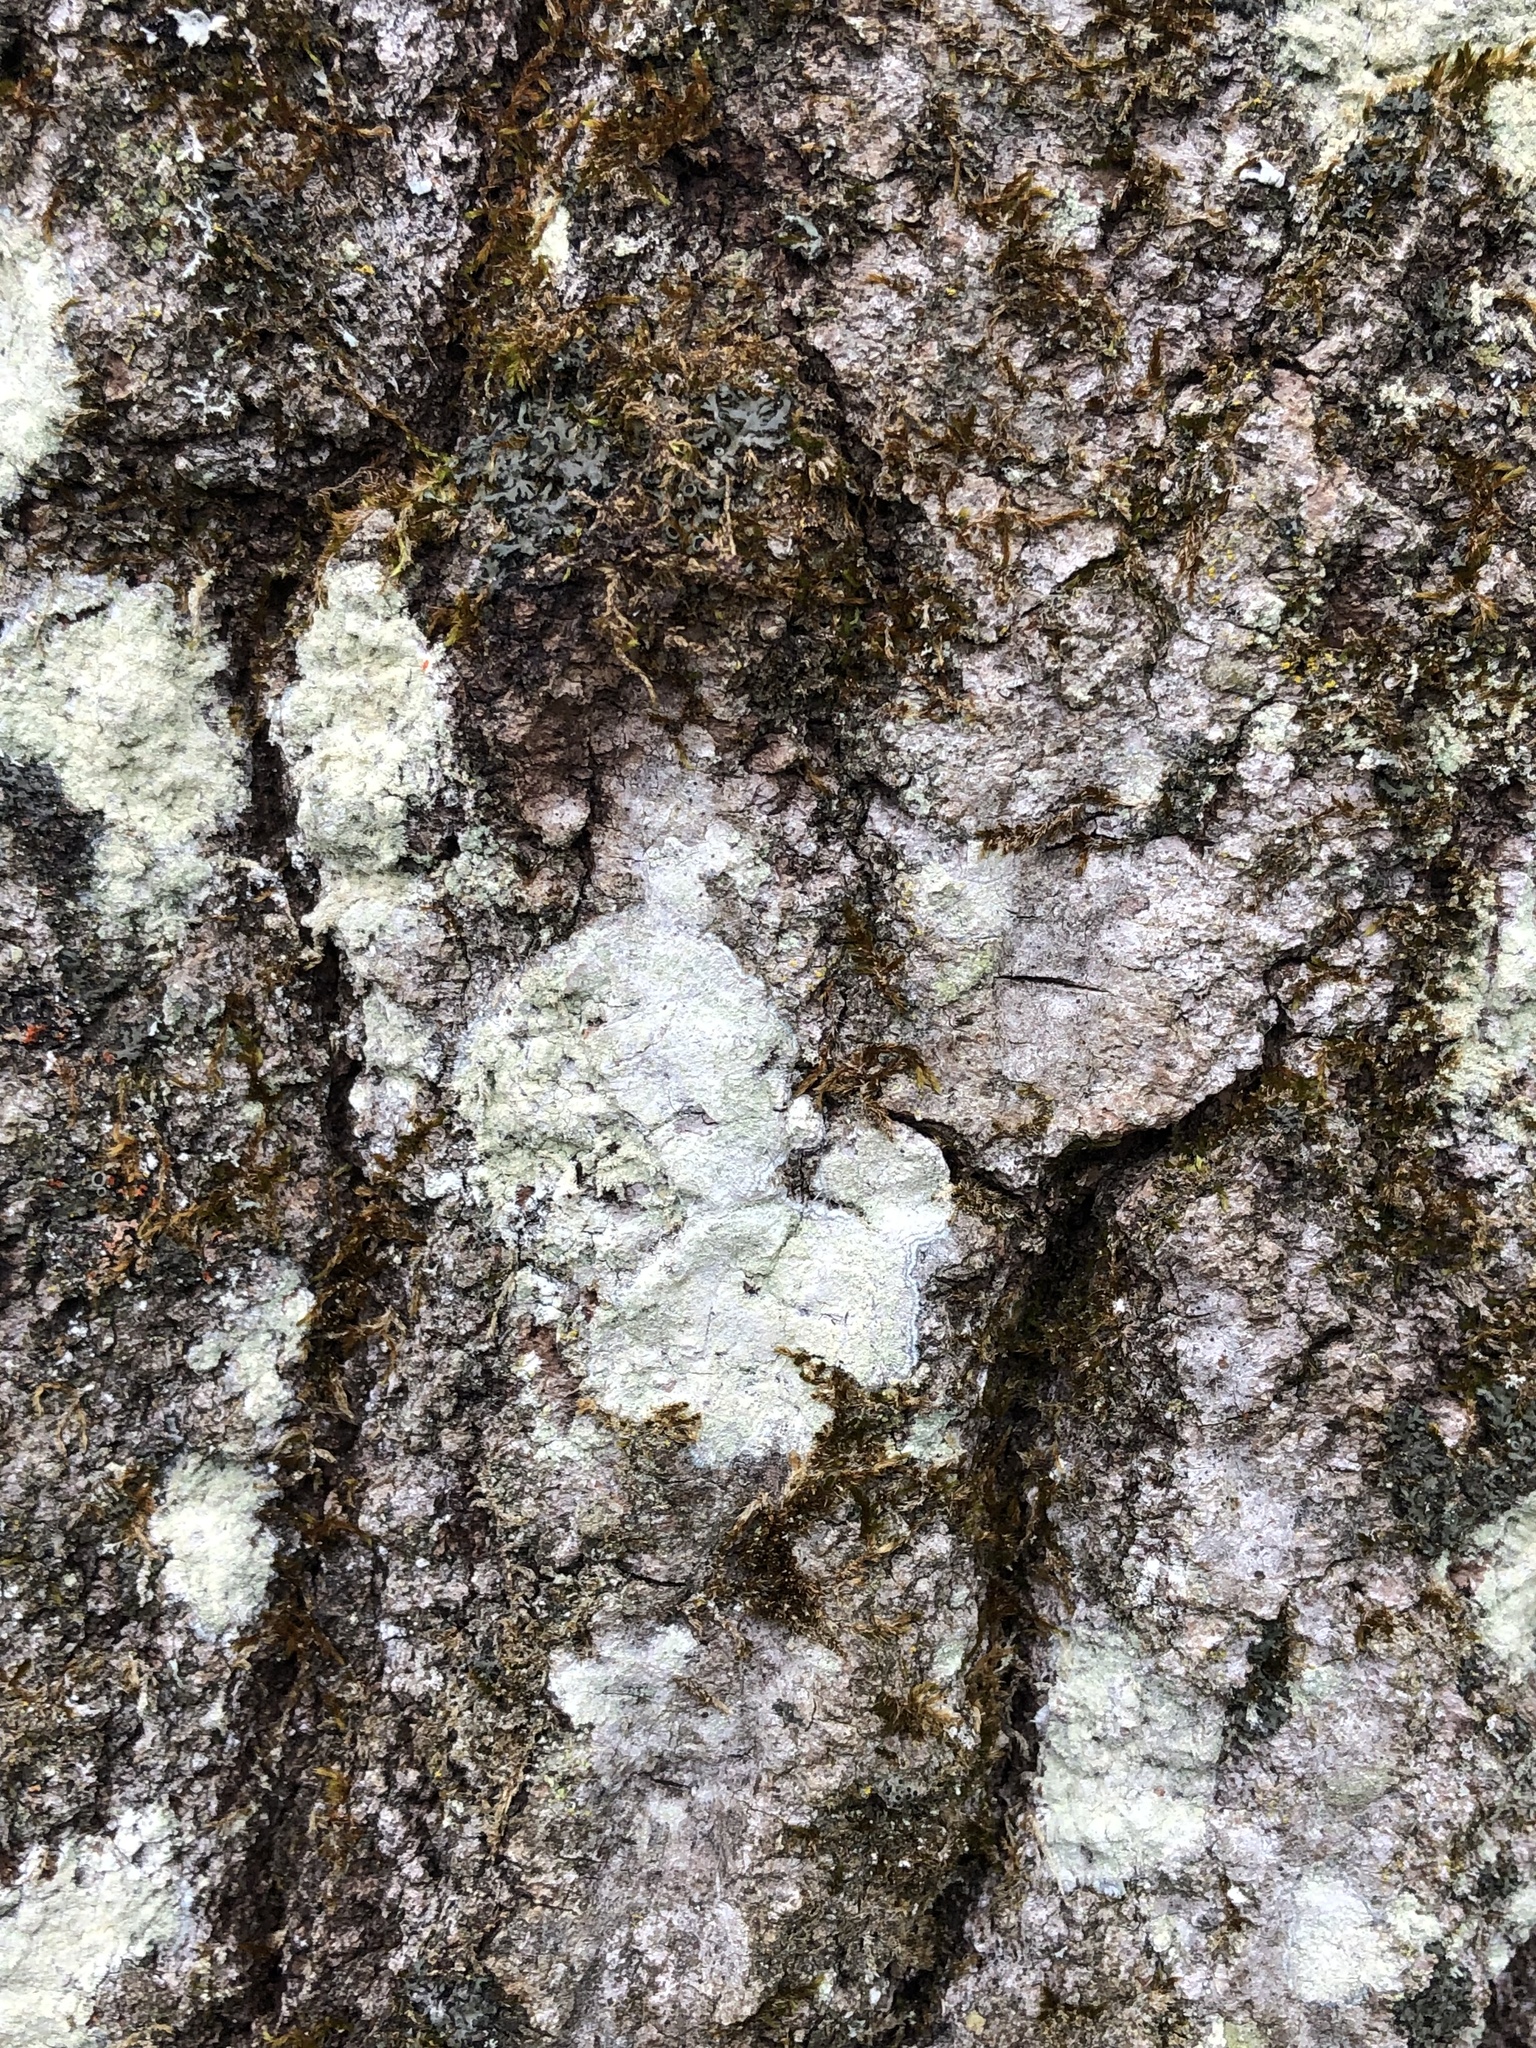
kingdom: Fungi
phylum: Ascomycota
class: Lecanoromycetes
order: Pertusariales
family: Pertusariaceae
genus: Verseghya
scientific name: Verseghya thysanophora
